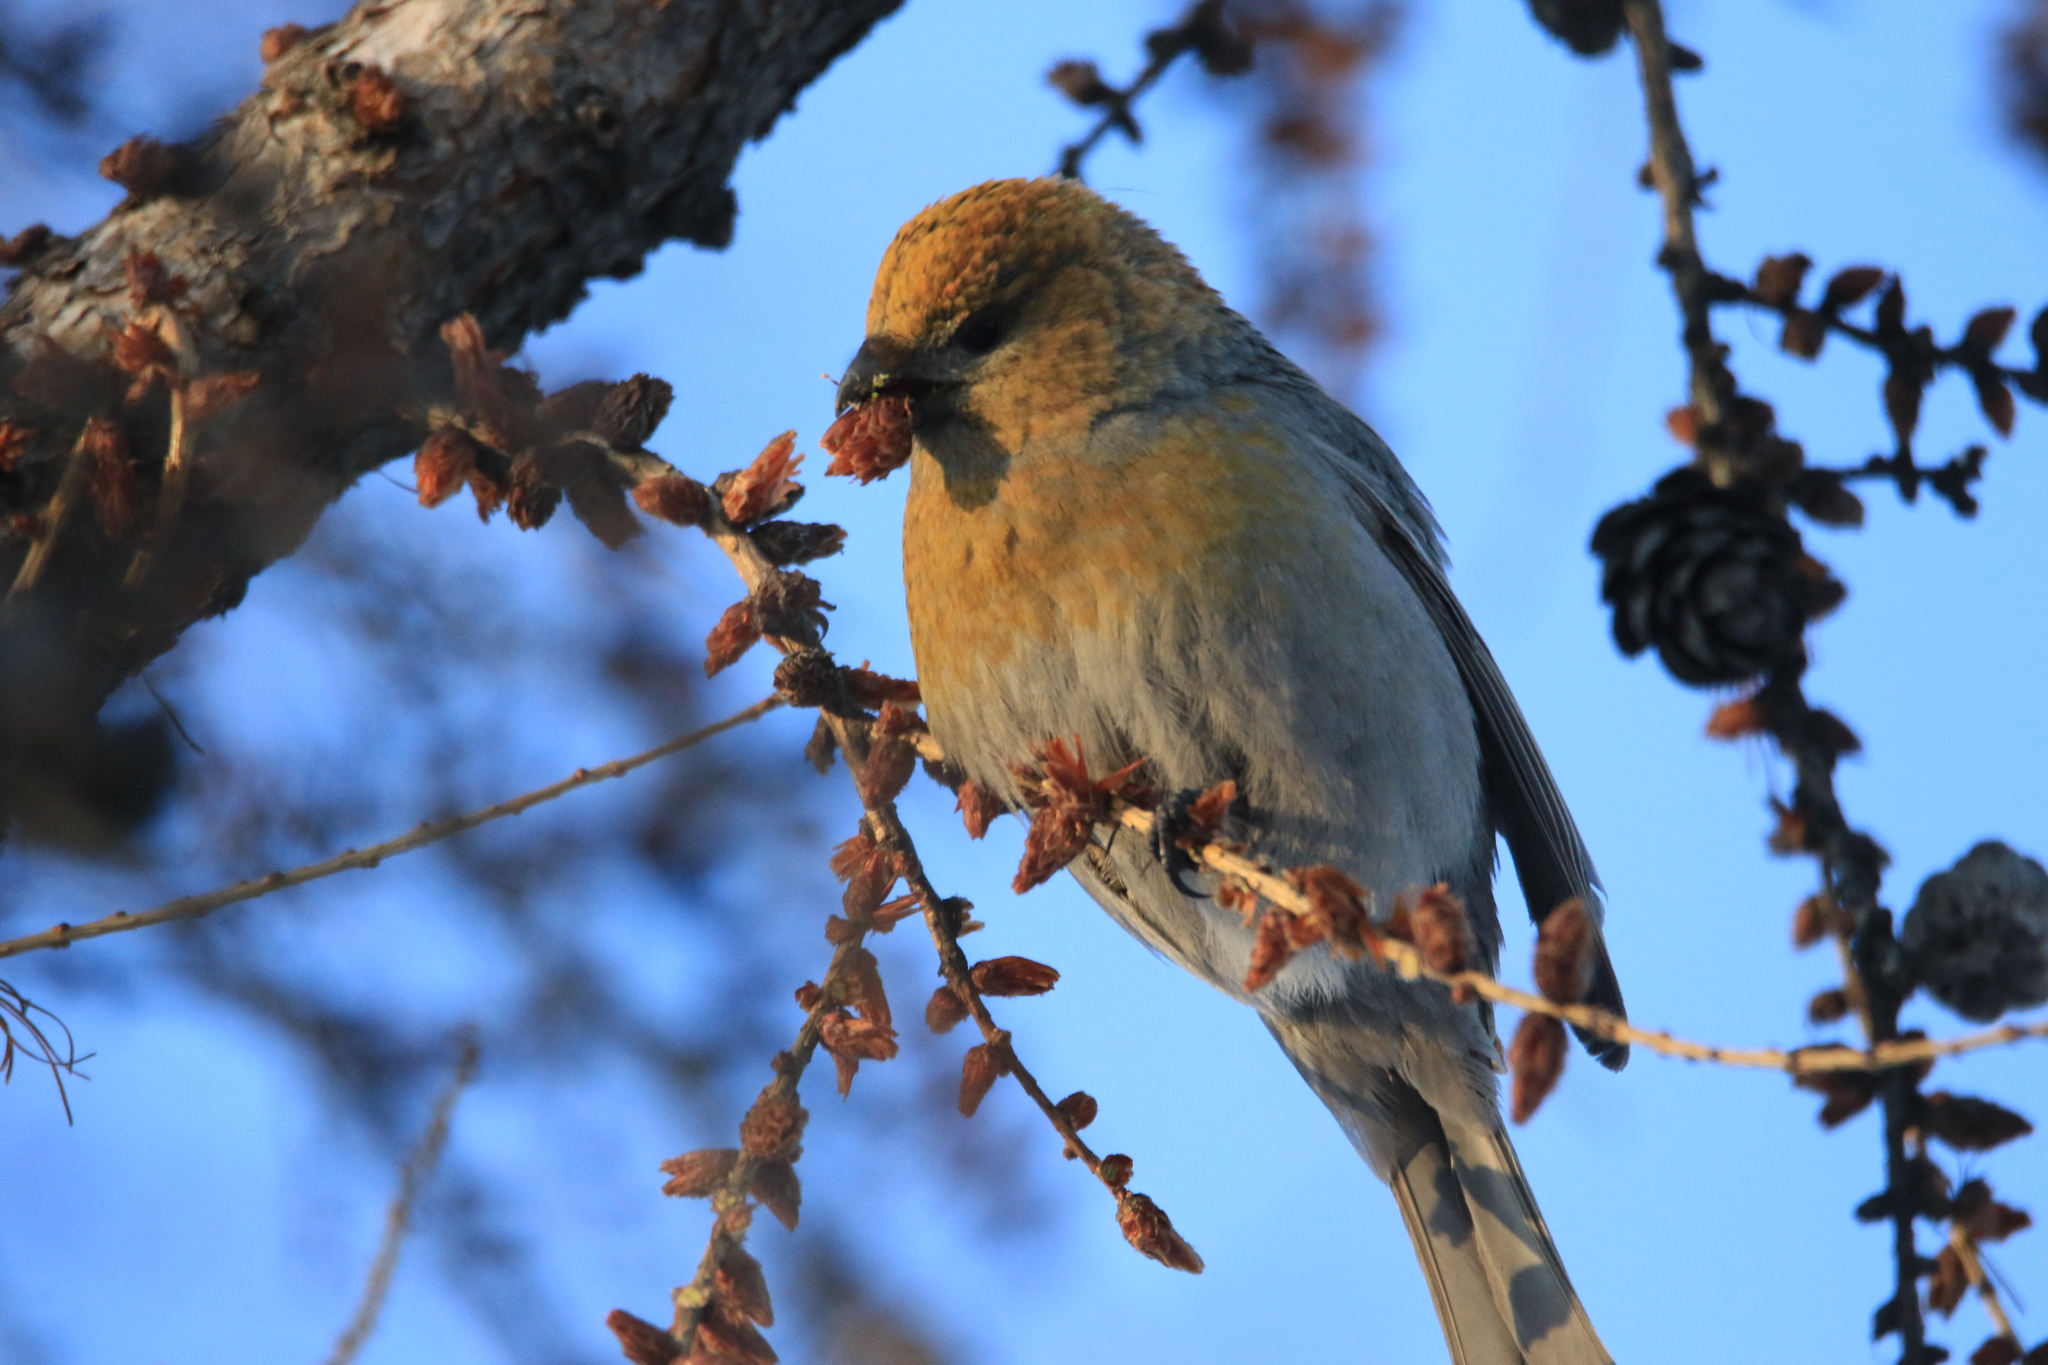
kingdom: Animalia
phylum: Chordata
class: Aves
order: Passeriformes
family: Fringillidae
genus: Pinicola
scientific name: Pinicola enucleator
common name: Pine grosbeak
